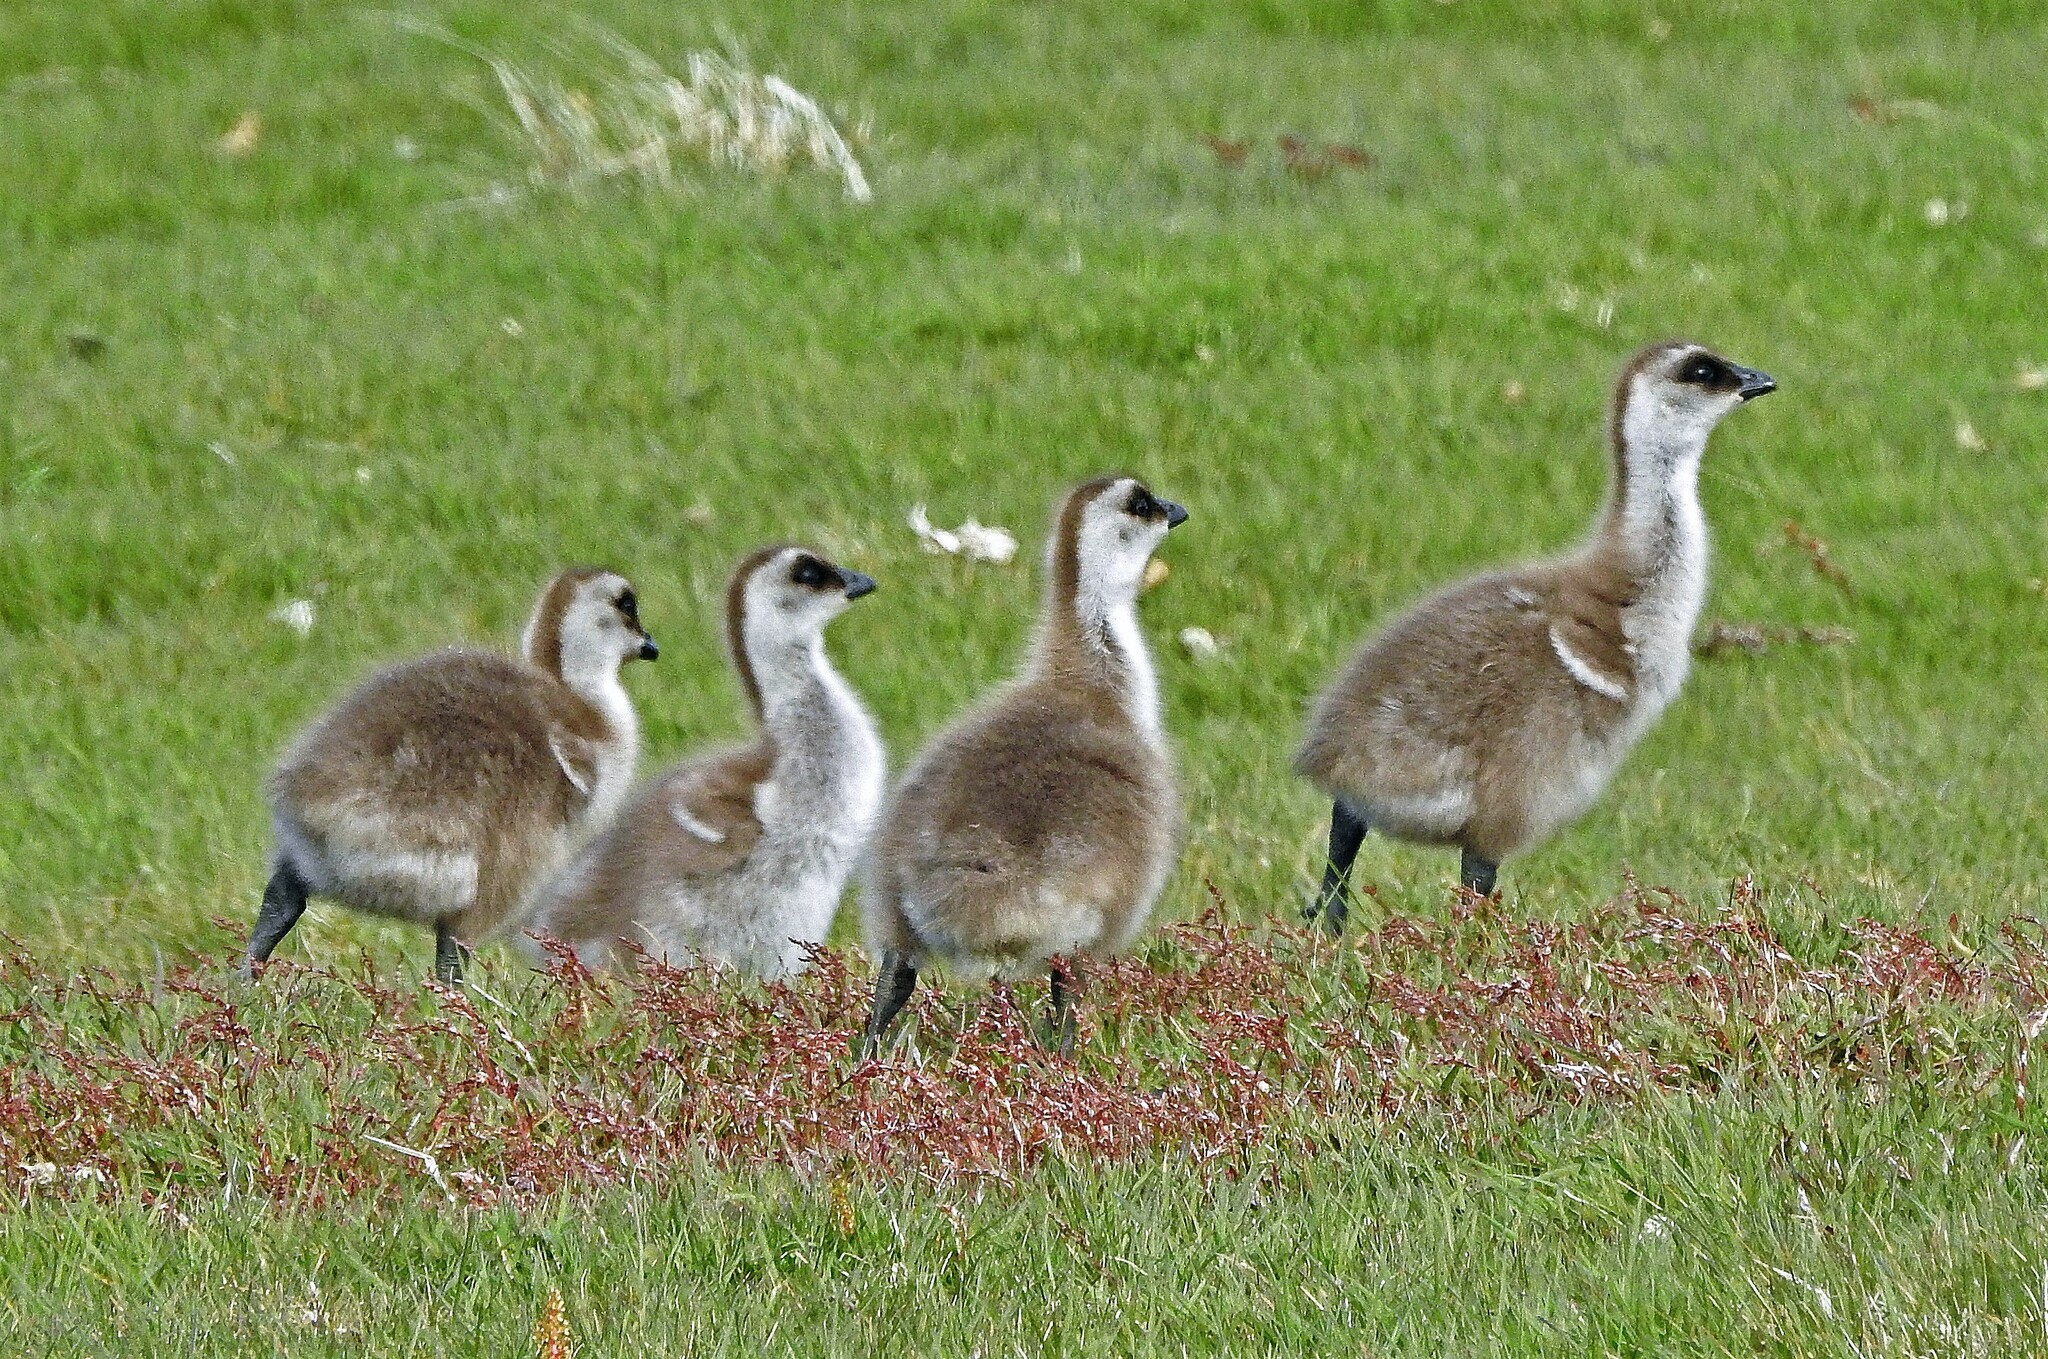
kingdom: Animalia
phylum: Chordata
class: Aves
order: Anseriformes
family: Anatidae
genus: Chloephaga
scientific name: Chloephaga picta
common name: Upland goose
